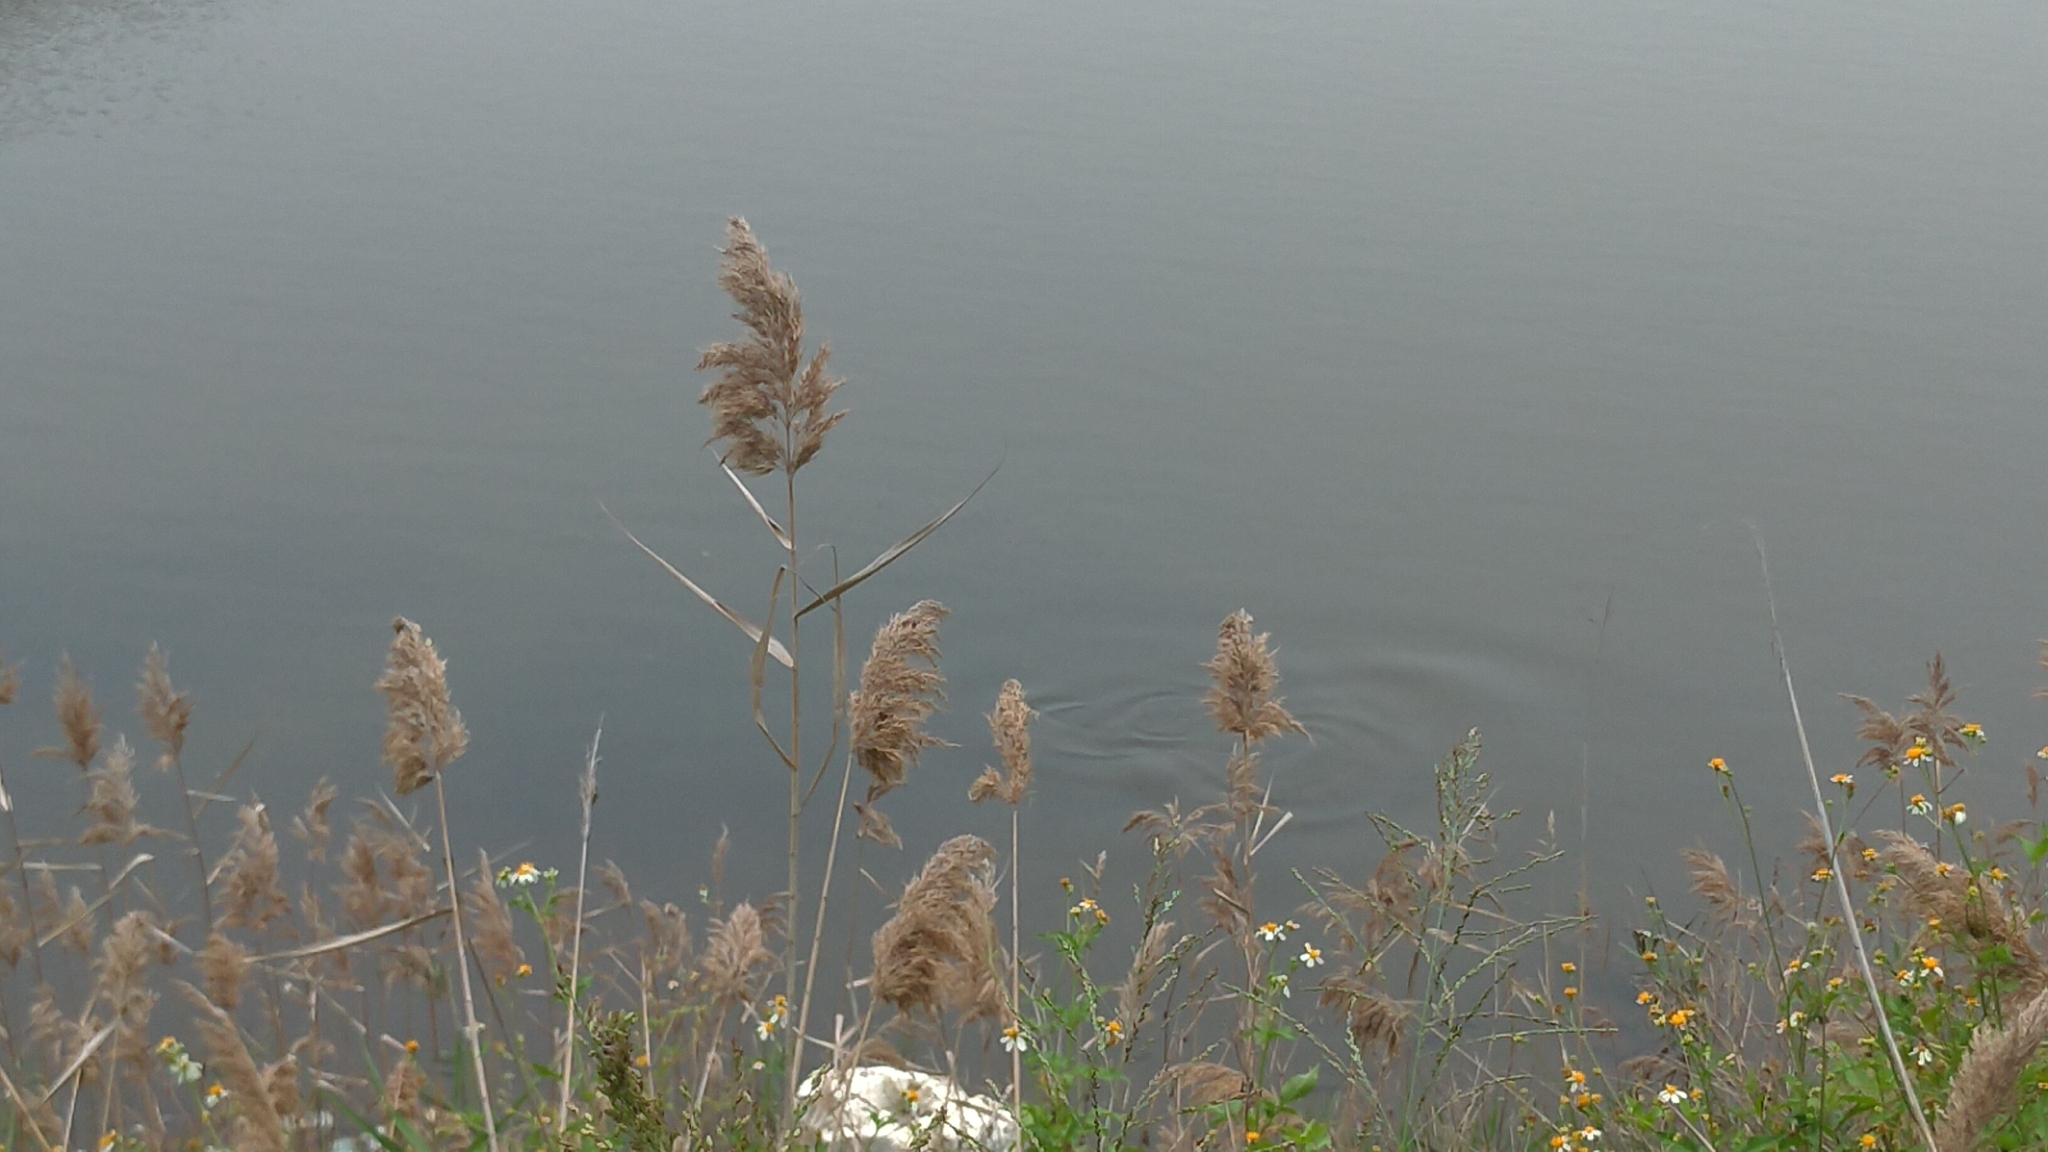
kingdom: Plantae
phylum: Tracheophyta
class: Liliopsida
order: Poales
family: Poaceae
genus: Phragmites
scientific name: Phragmites australis
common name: Common reed
